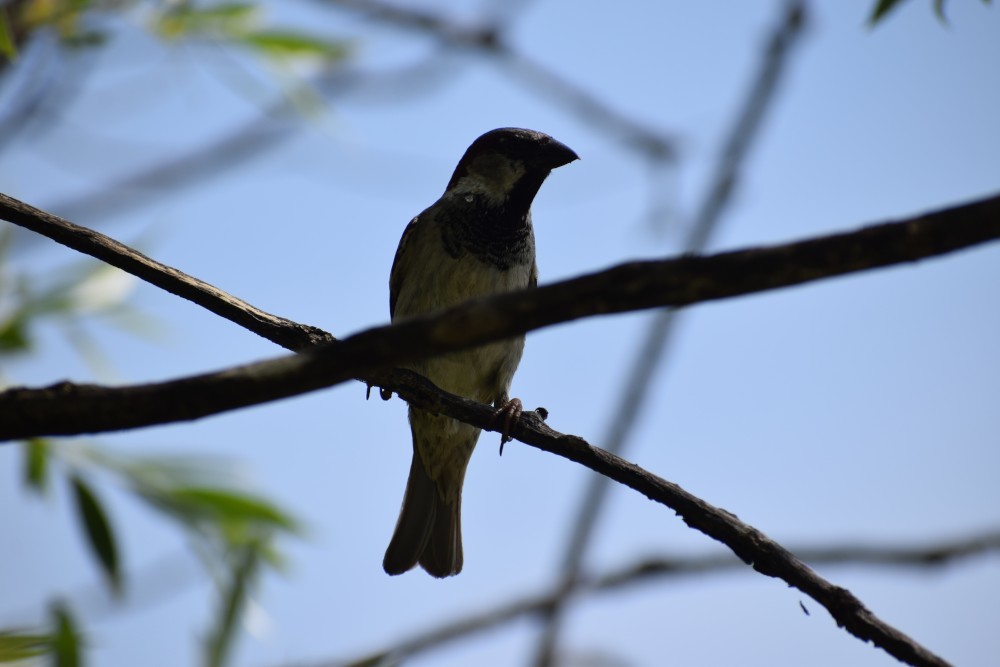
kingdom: Animalia
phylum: Chordata
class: Aves
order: Passeriformes
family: Passeridae
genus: Passer
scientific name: Passer domesticus
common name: House sparrow
